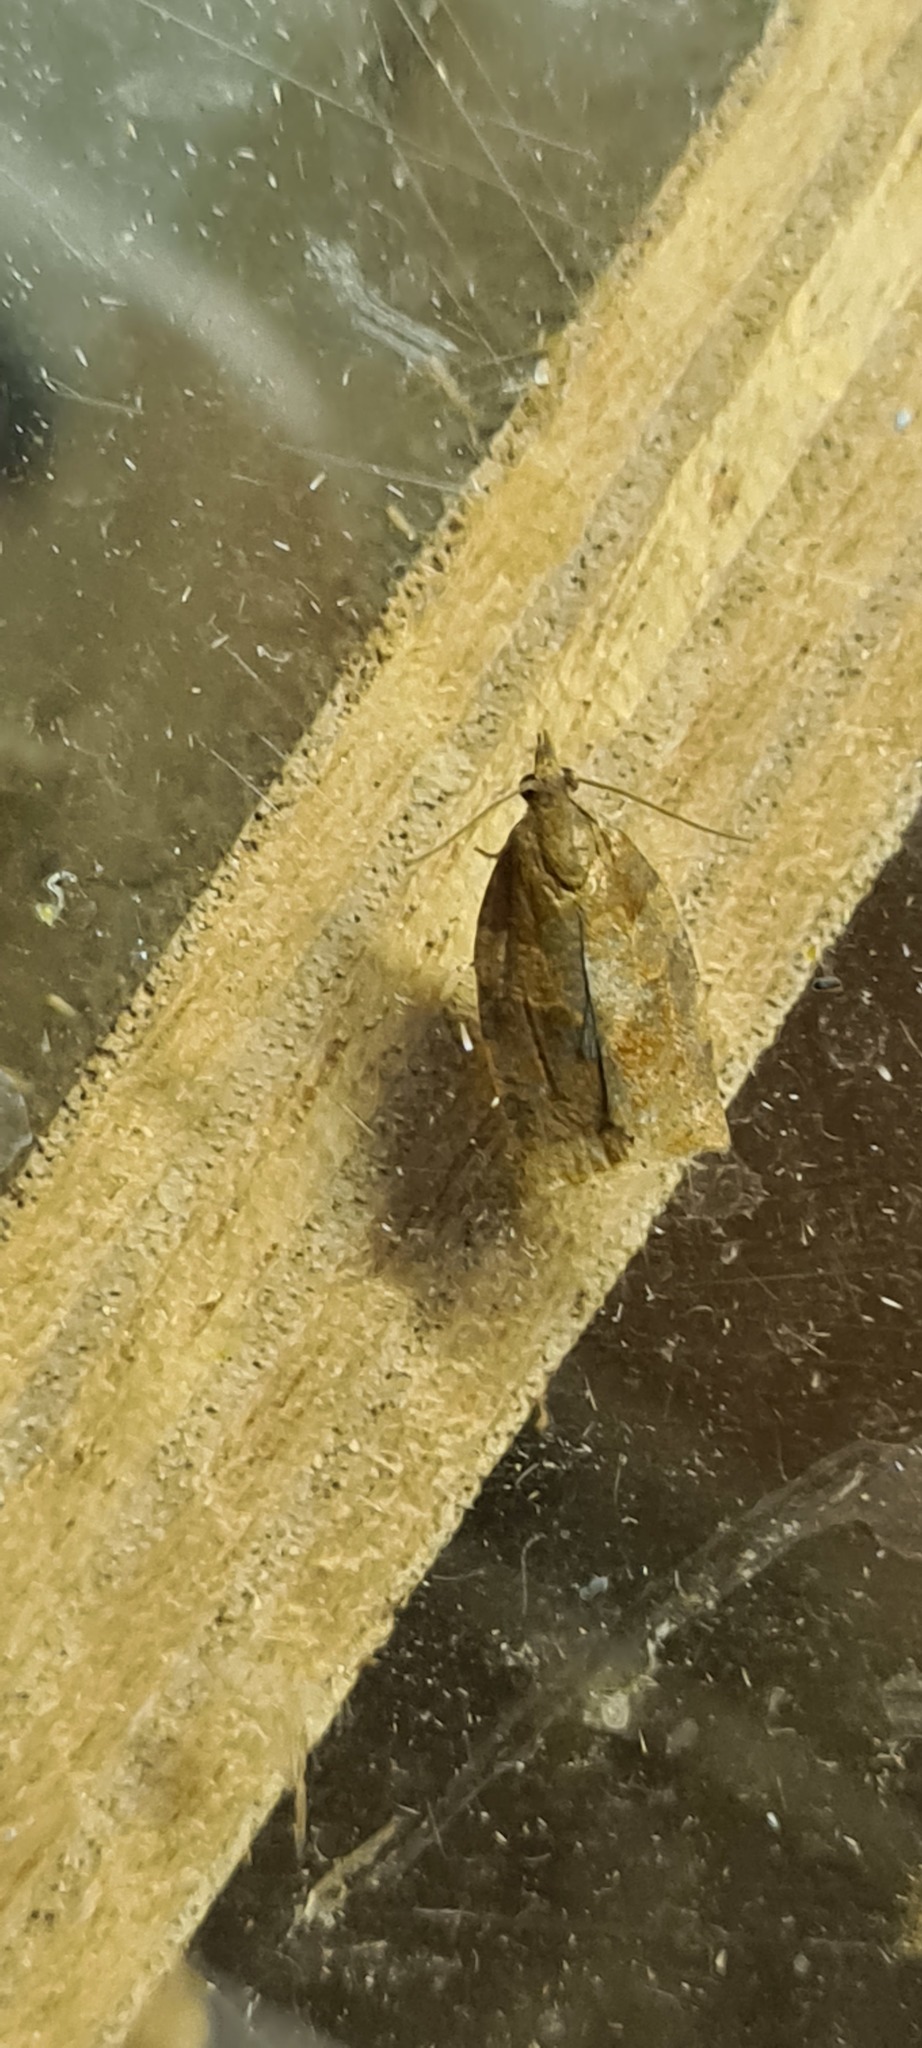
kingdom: Animalia
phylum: Arthropoda
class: Insecta
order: Lepidoptera
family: Tortricidae
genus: Pandemis
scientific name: Pandemis heparana
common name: Dark fruit-tree tortrix
